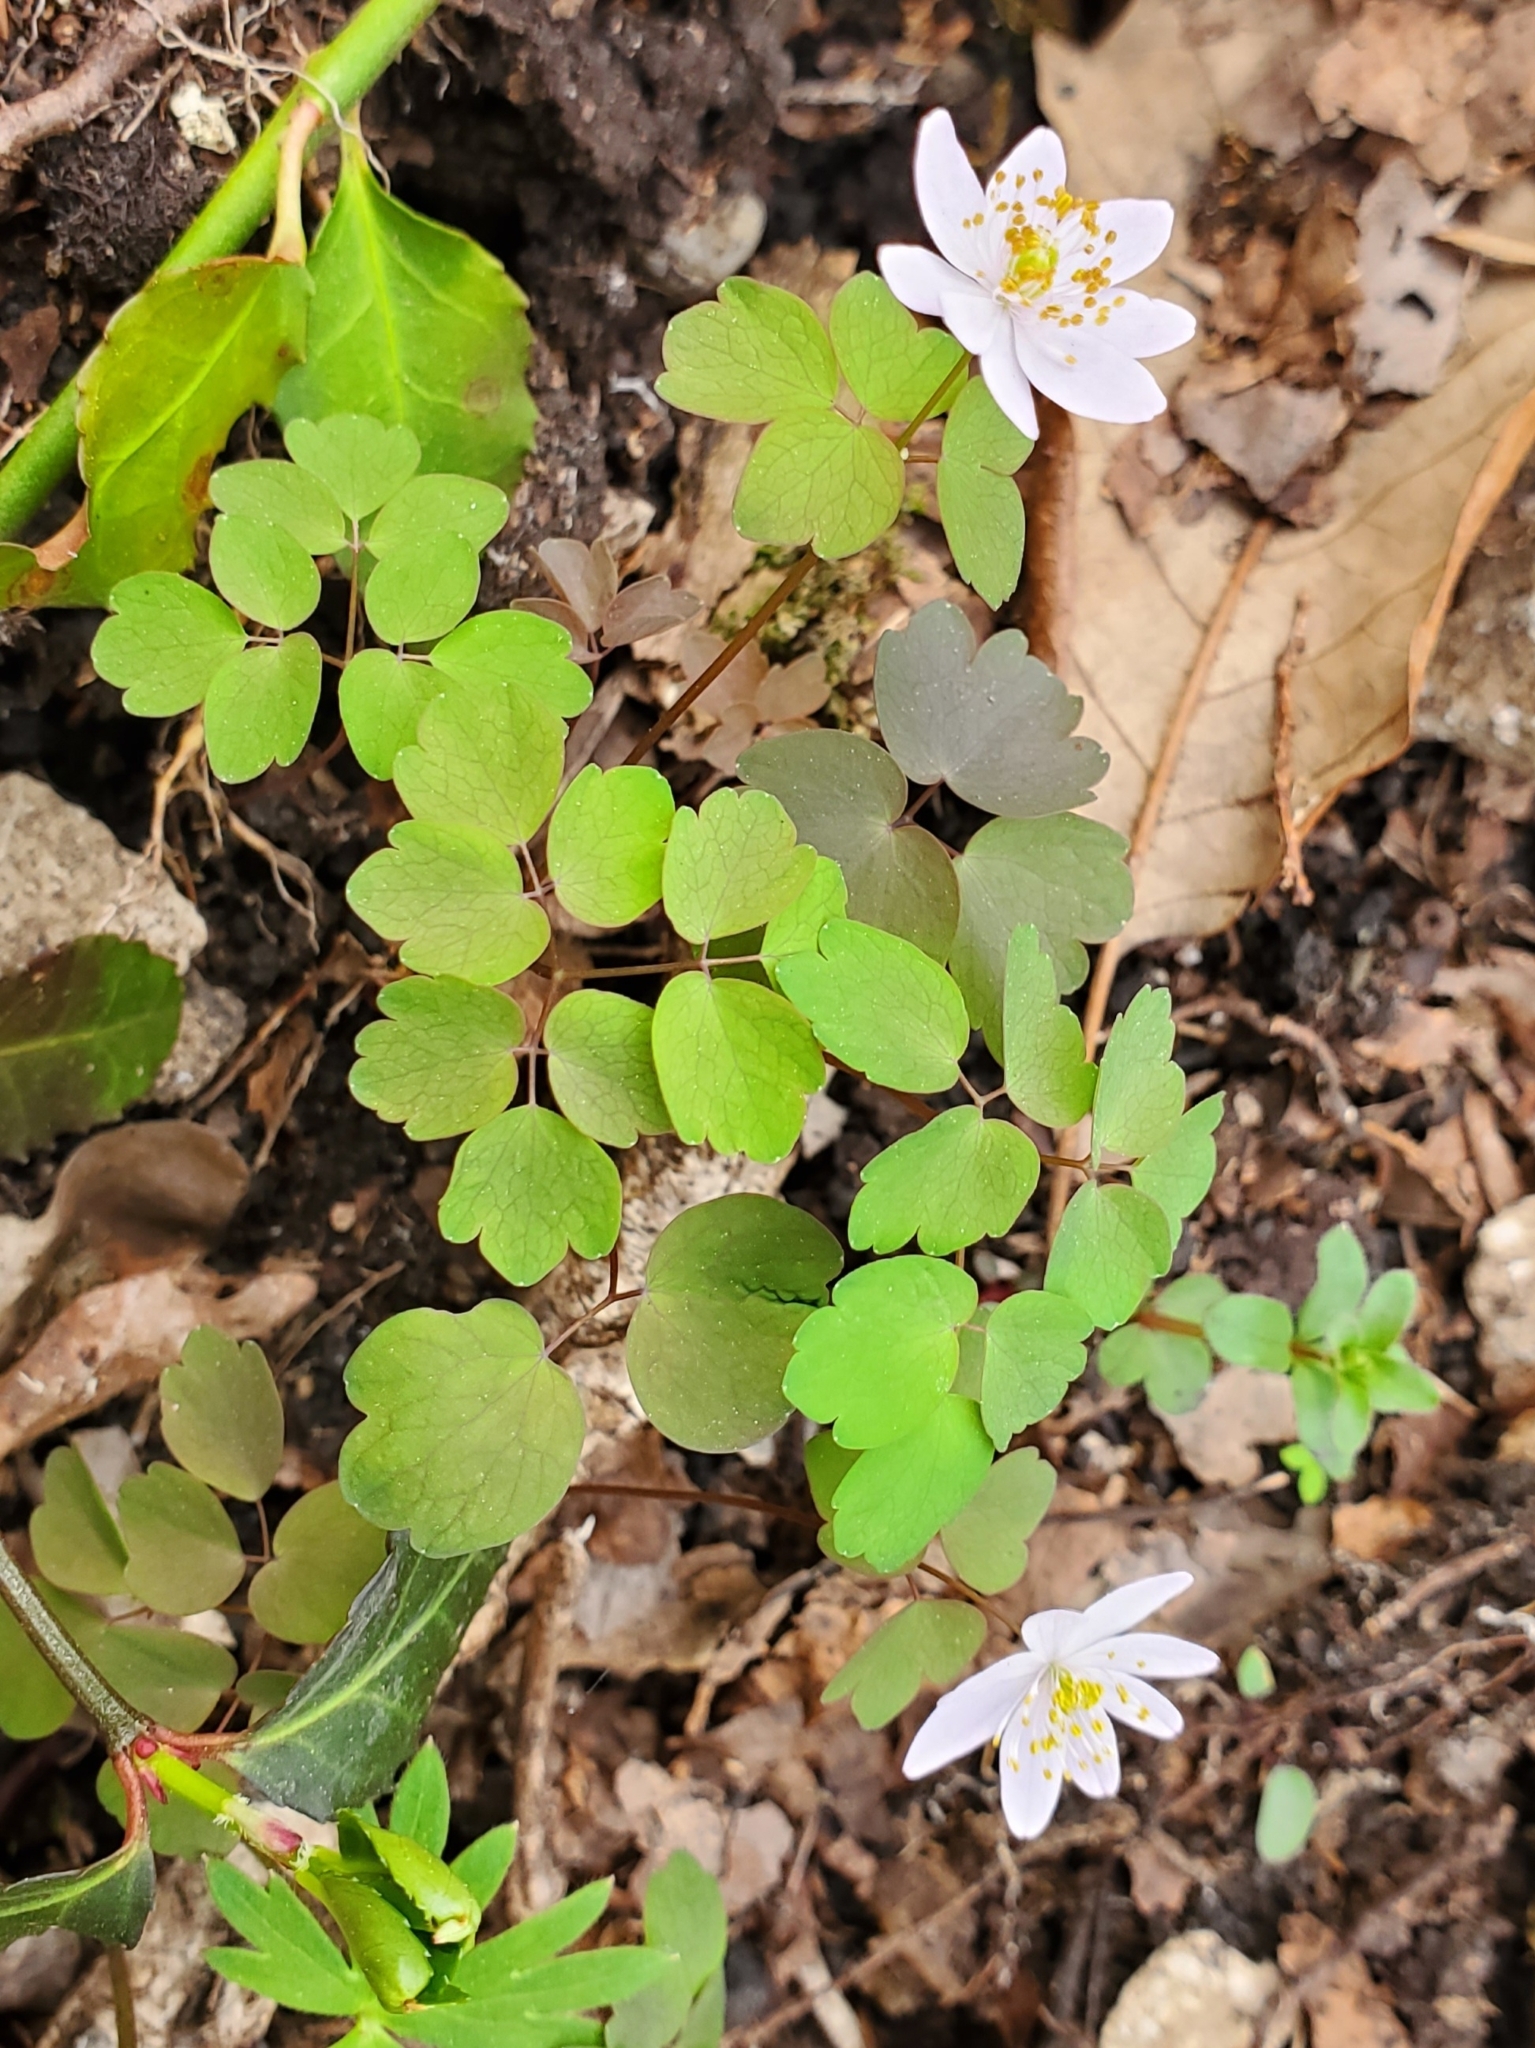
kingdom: Plantae
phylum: Tracheophyta
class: Magnoliopsida
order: Ranunculales
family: Ranunculaceae
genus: Thalictrum
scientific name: Thalictrum dioicum
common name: Early meadow-rue
